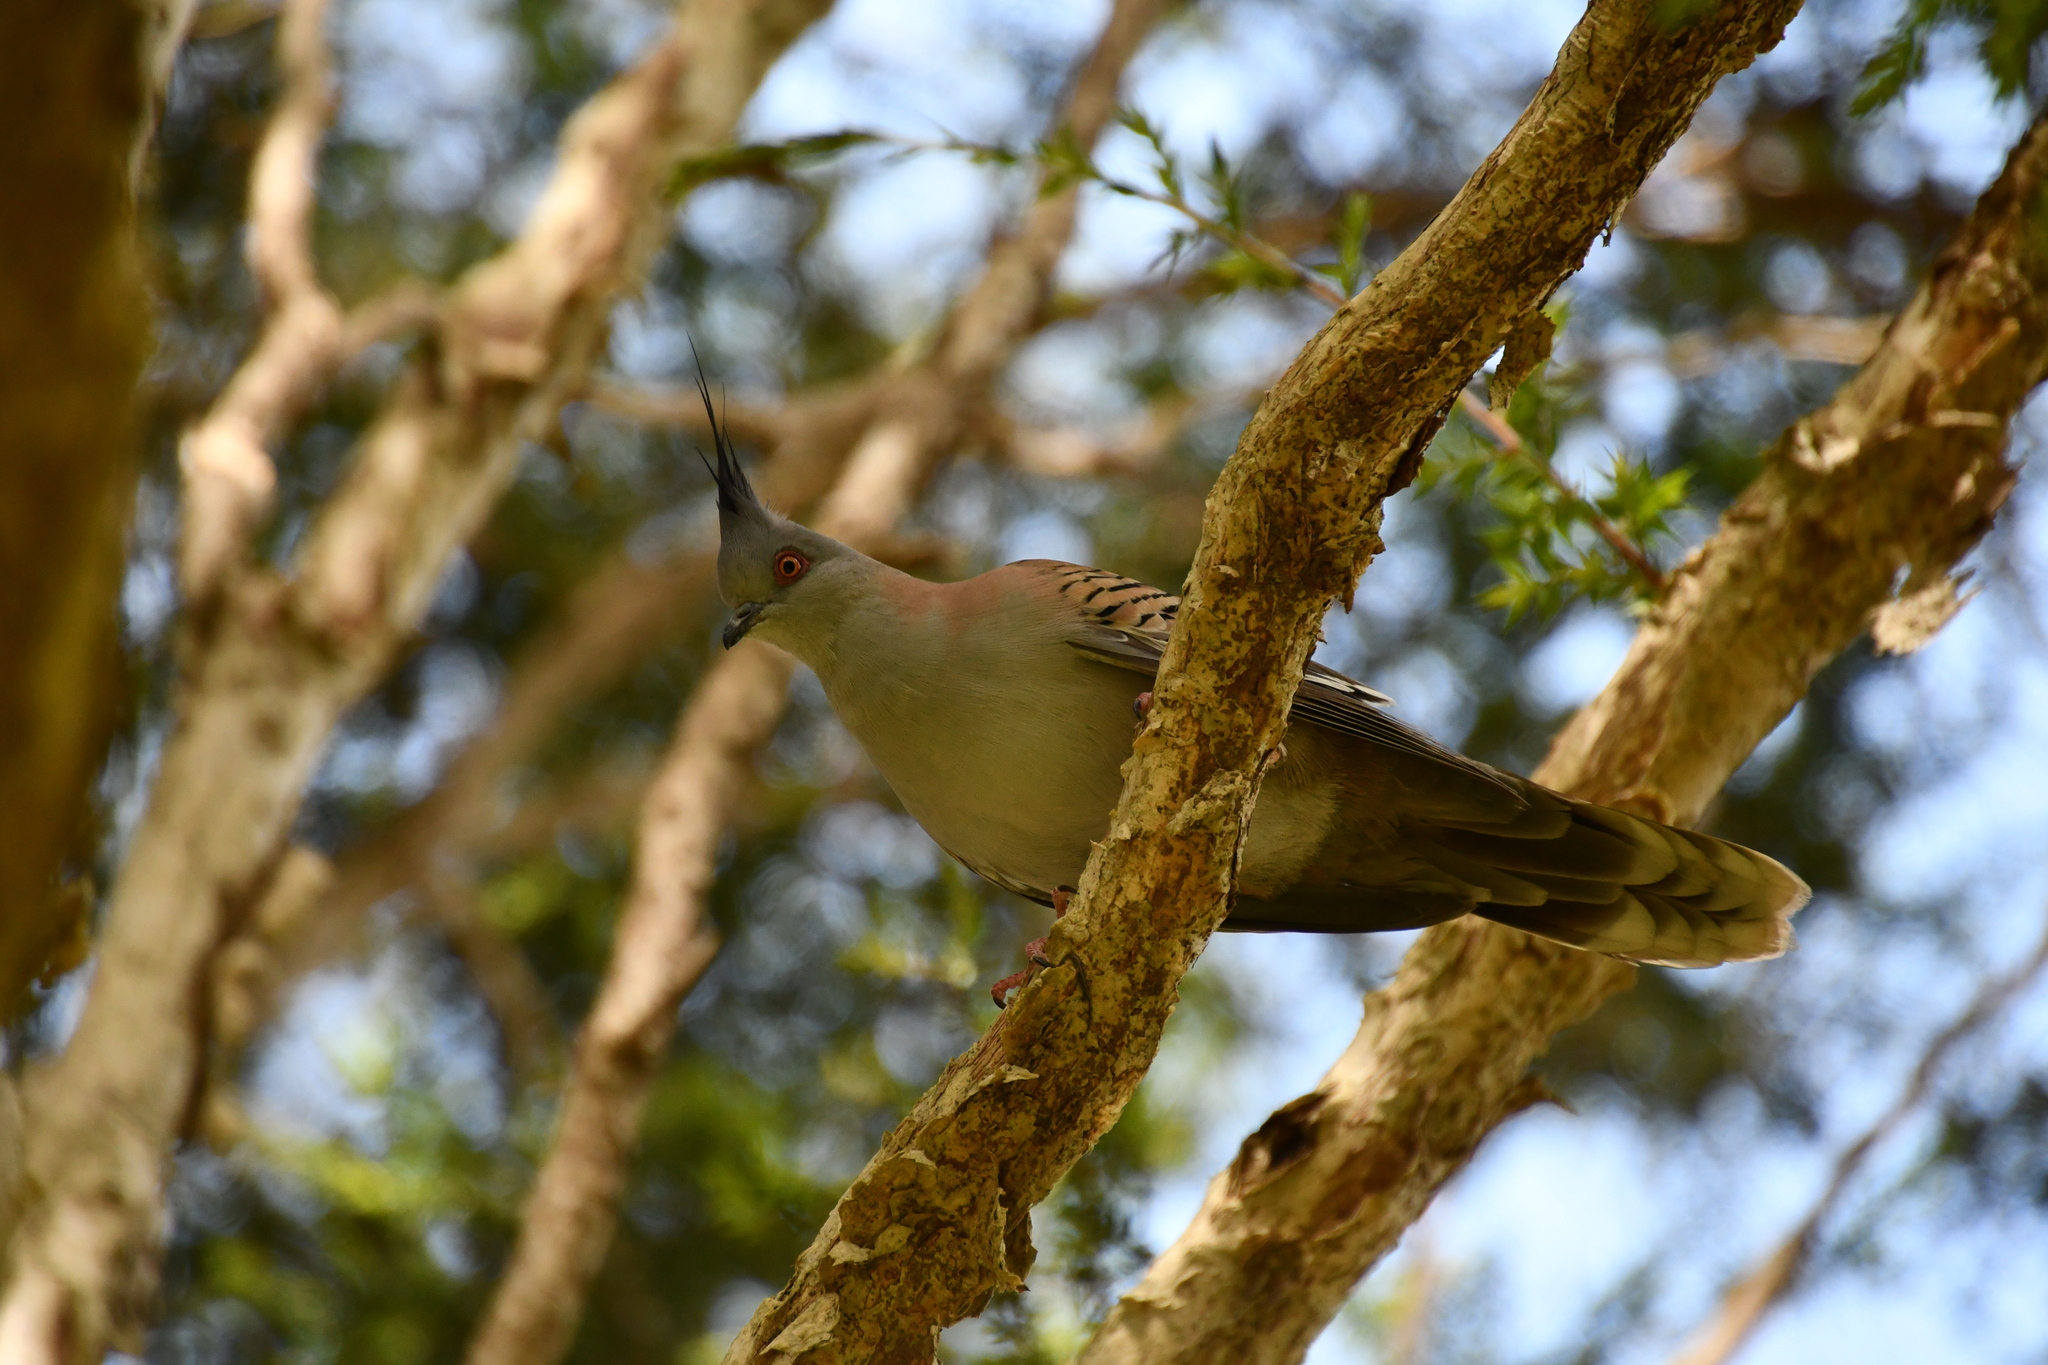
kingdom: Animalia
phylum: Chordata
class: Aves
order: Columbiformes
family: Columbidae
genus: Ocyphaps
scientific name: Ocyphaps lophotes
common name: Crested pigeon
